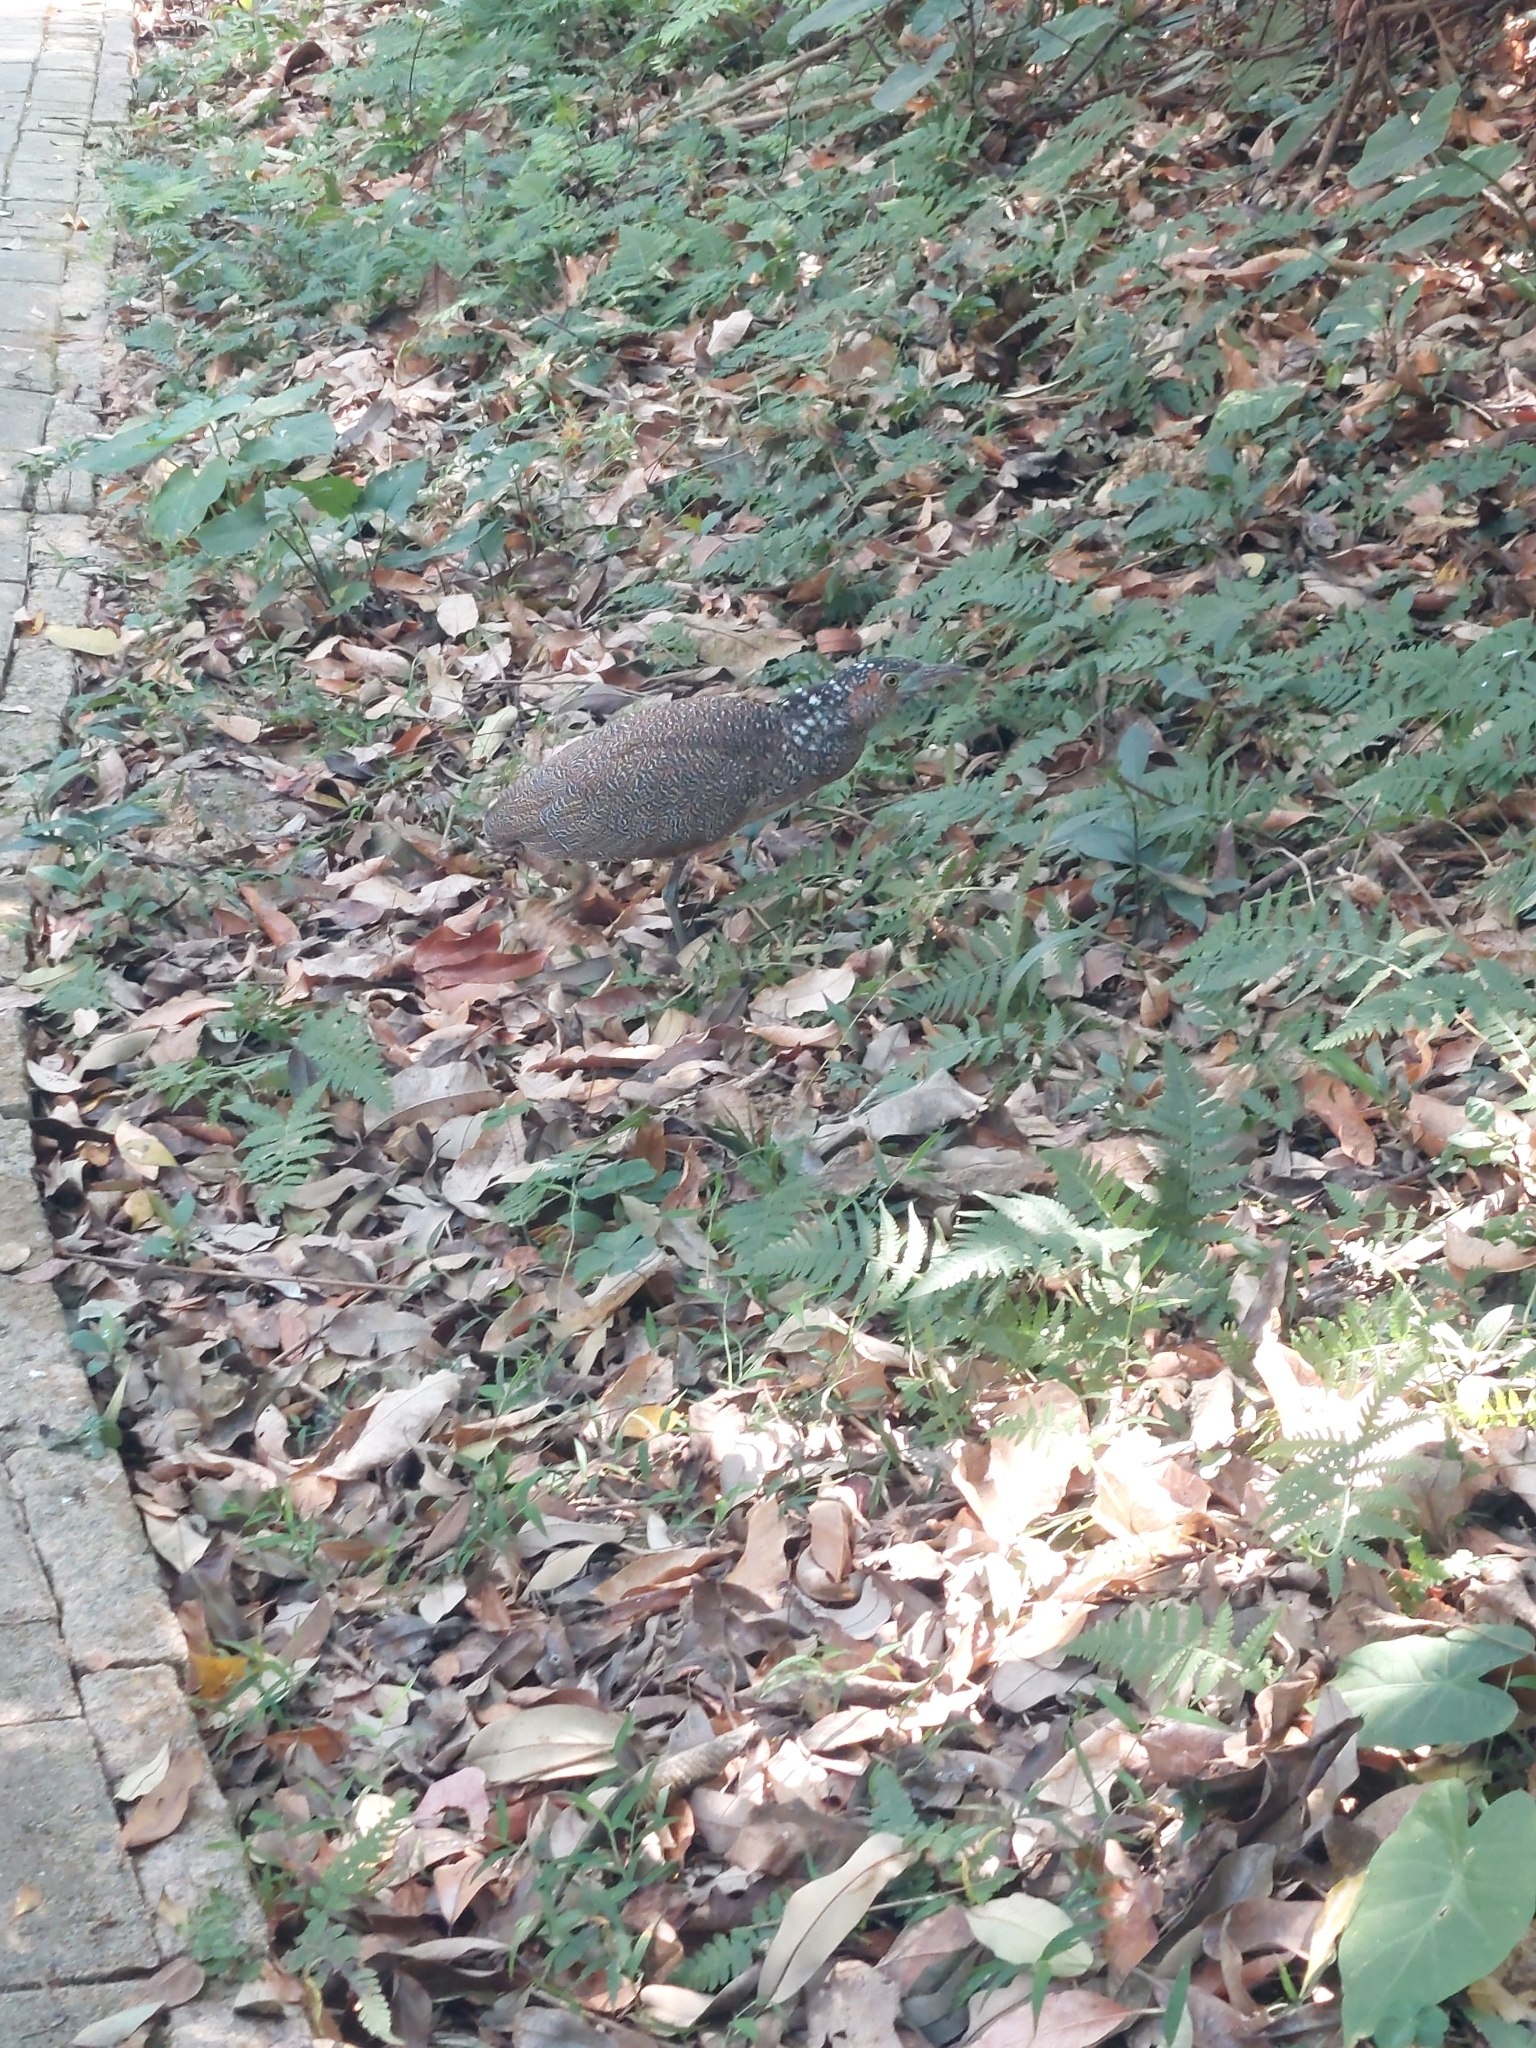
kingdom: Animalia
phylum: Chordata
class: Aves
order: Pelecaniformes
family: Ardeidae
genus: Gorsachius
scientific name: Gorsachius melanolophus
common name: Malayan night heron
